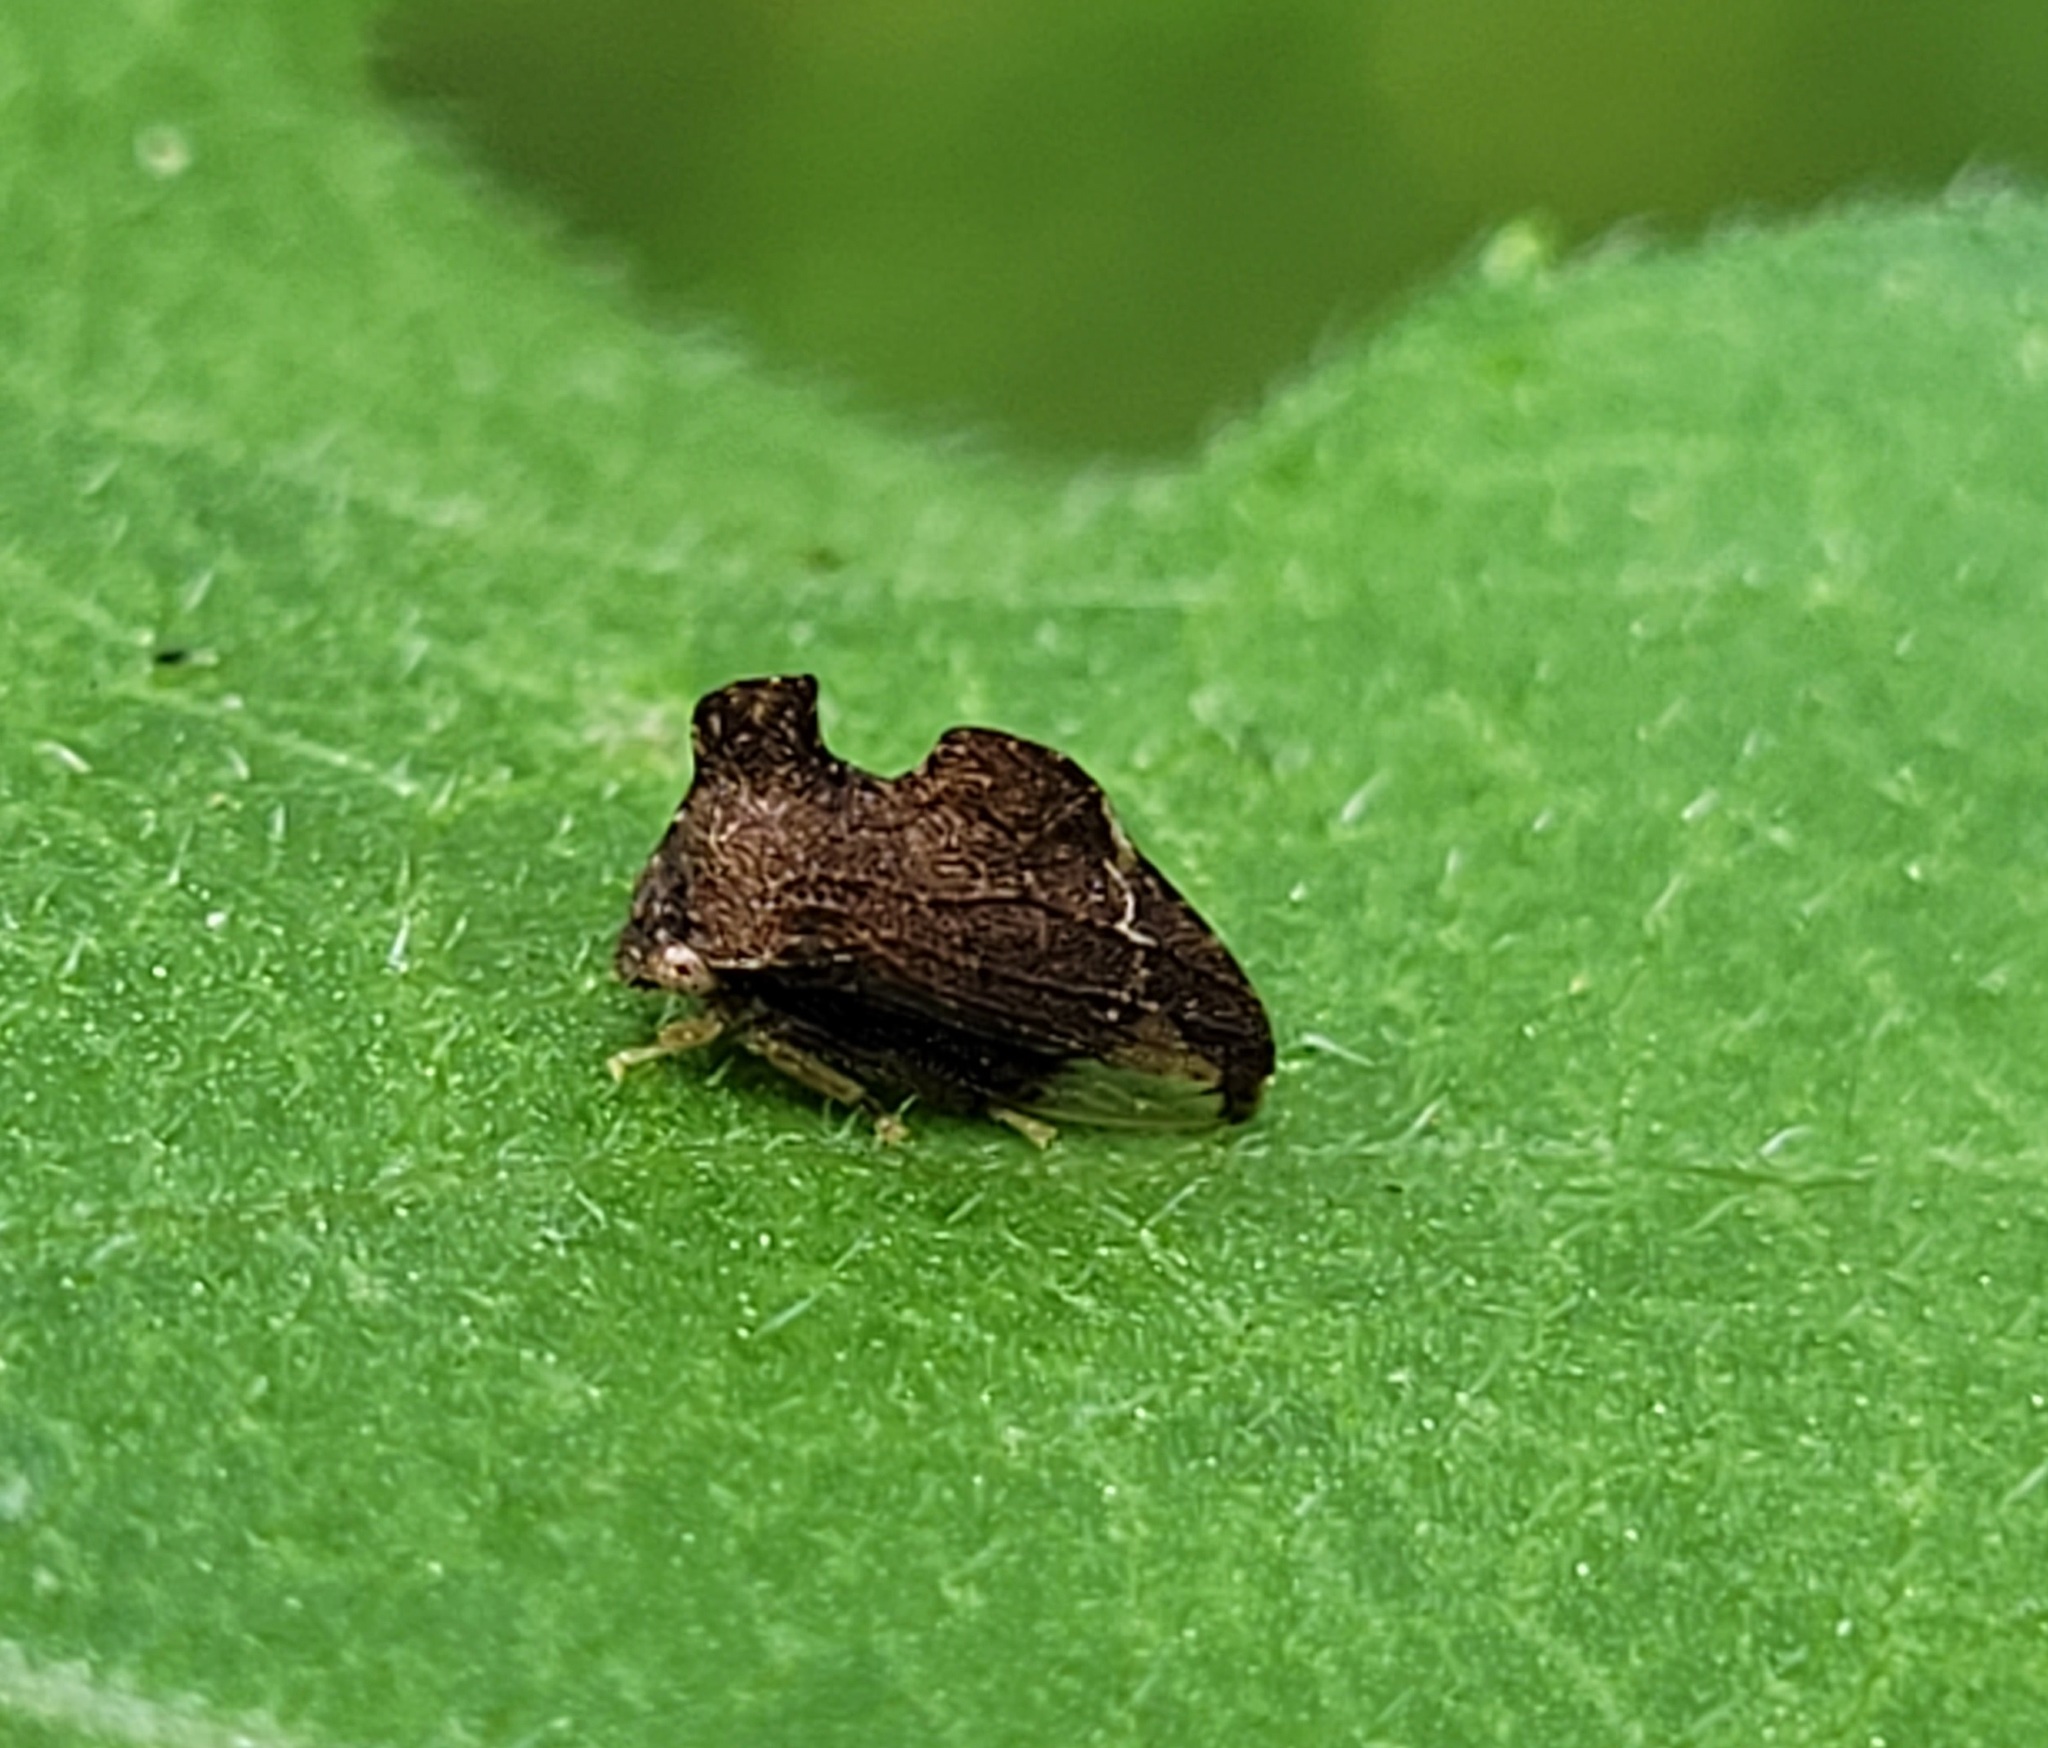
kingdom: Animalia
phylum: Arthropoda
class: Insecta
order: Hemiptera
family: Membracidae
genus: Entylia
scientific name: Entylia carinata
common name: Keeled treehopper
